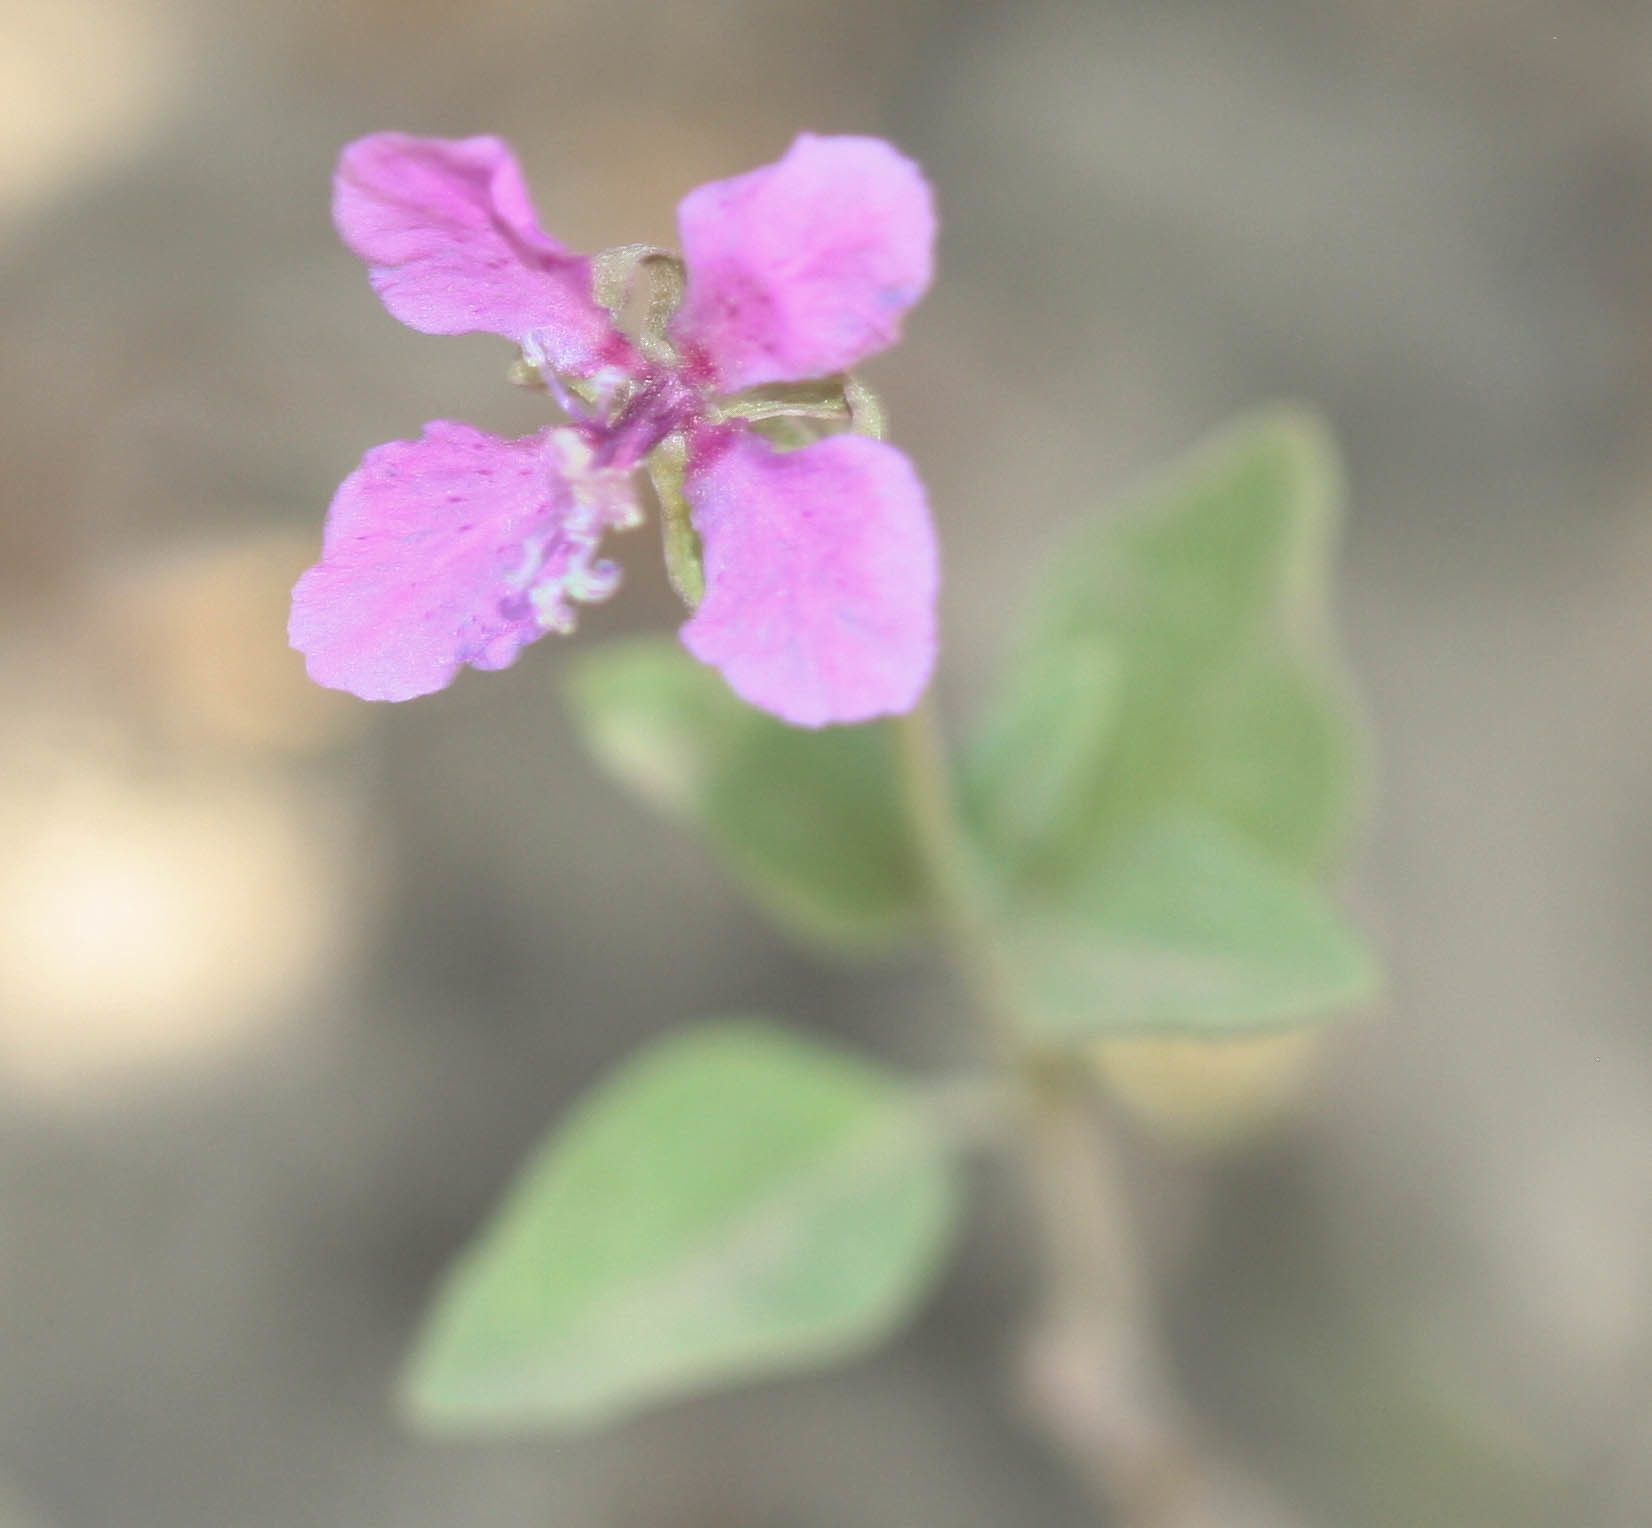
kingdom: Plantae
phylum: Tracheophyta
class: Magnoliopsida
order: Myrtales
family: Onagraceae
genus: Clarkia
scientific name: Clarkia rhomboidea
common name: Broadleaf clarkia
